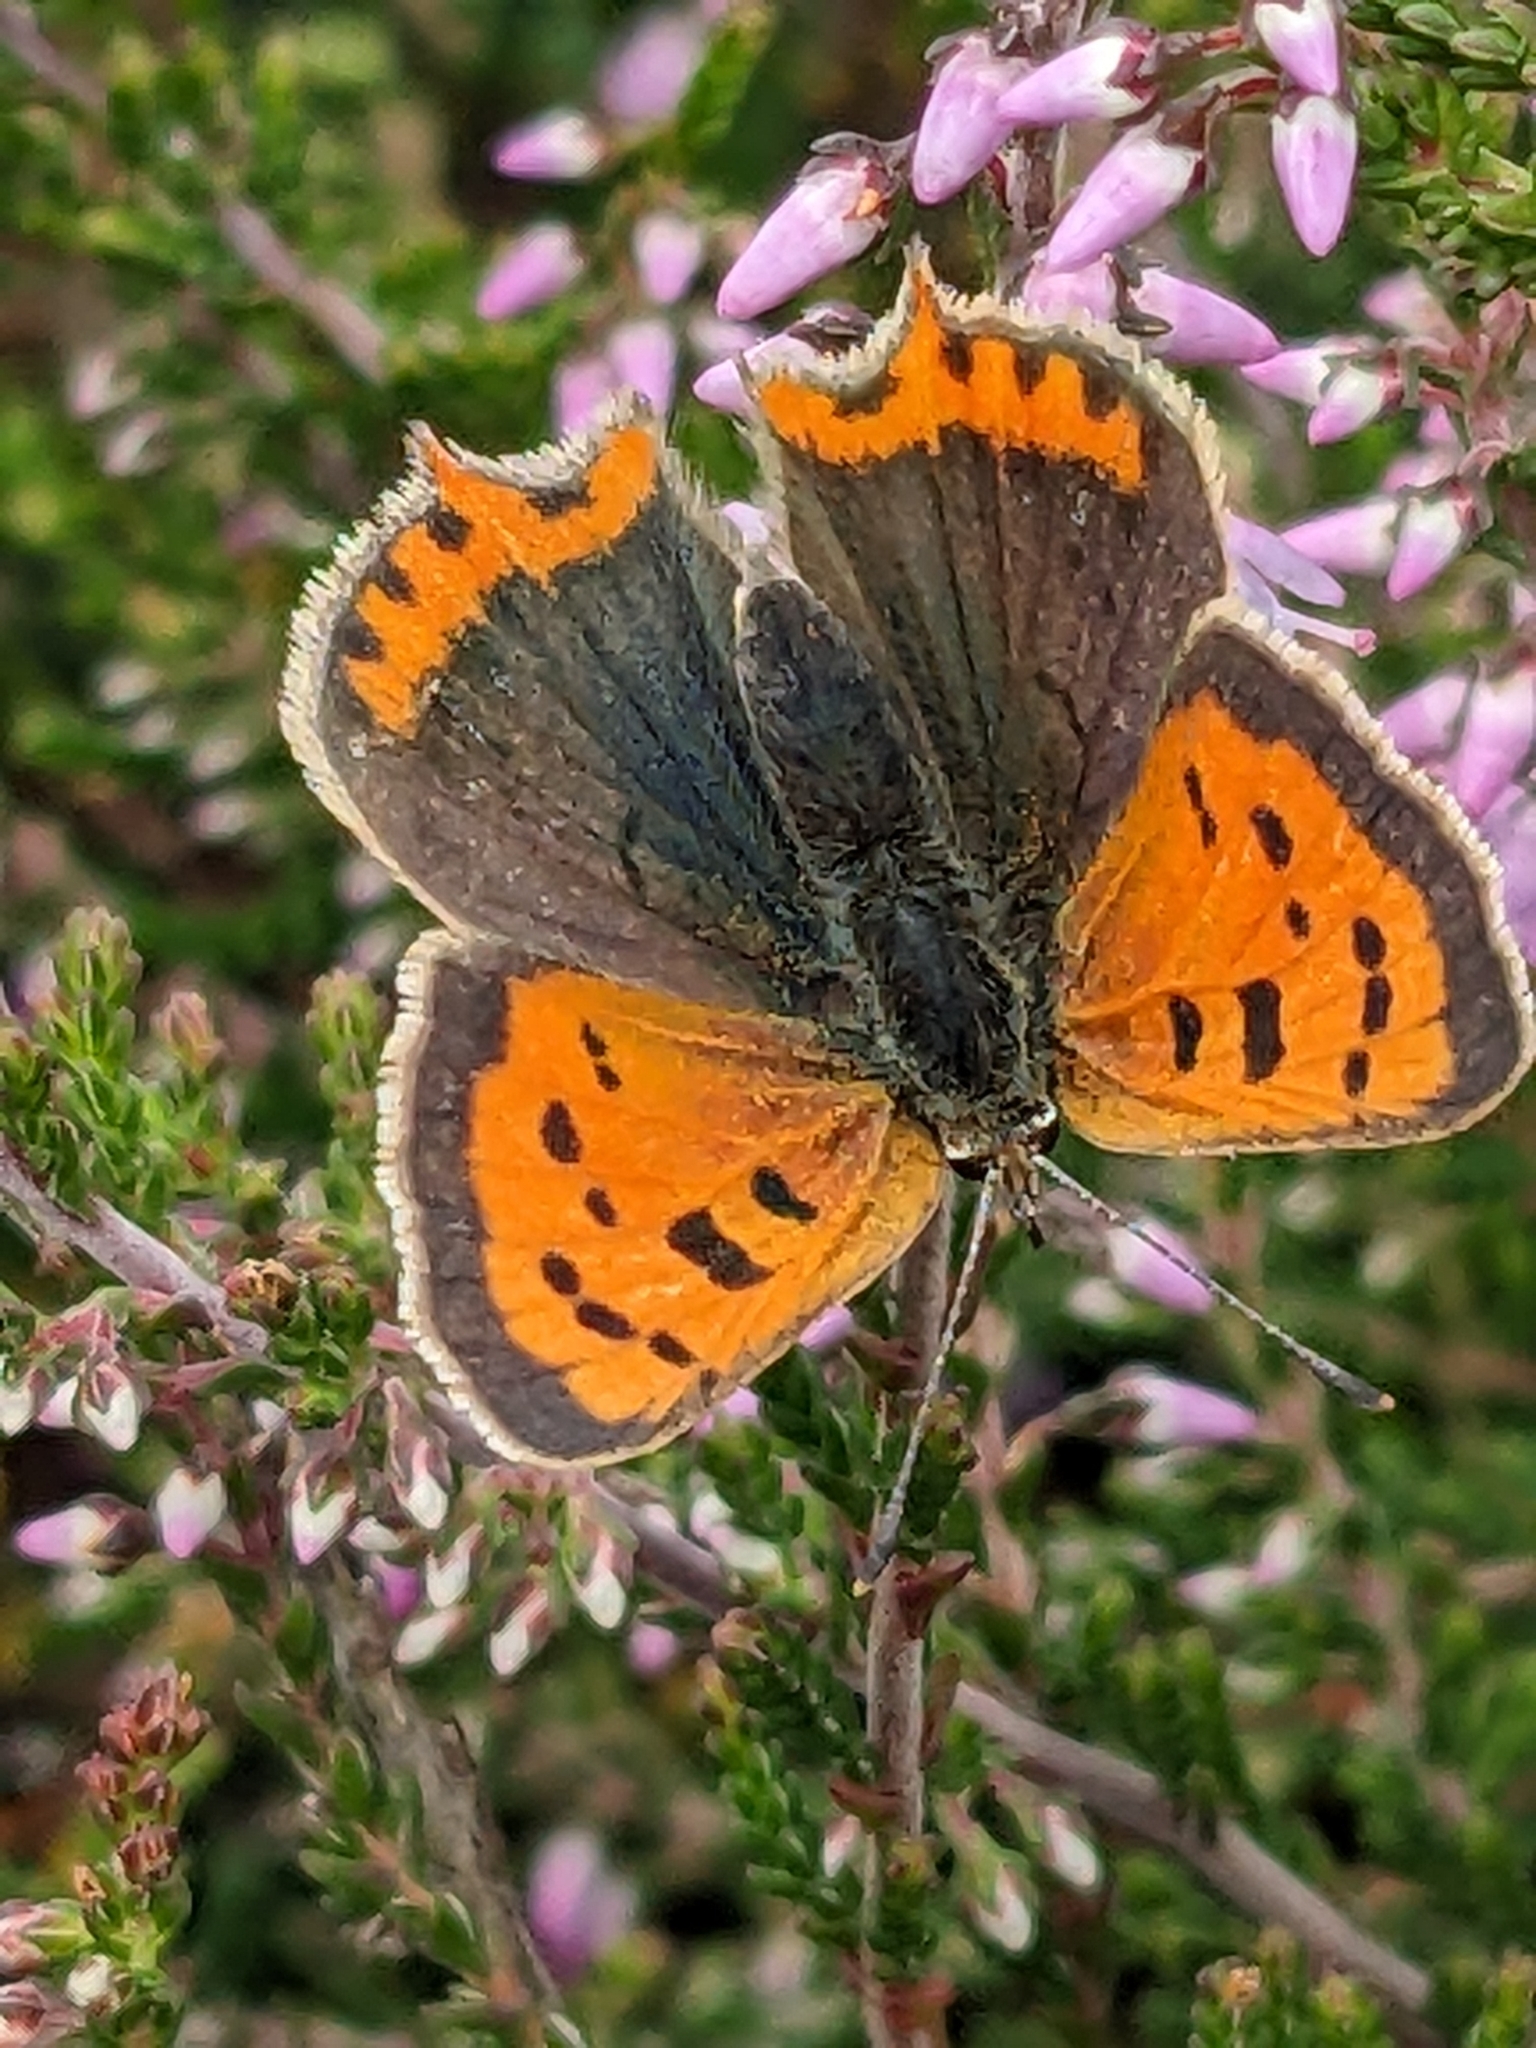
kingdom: Animalia
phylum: Arthropoda
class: Insecta
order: Lepidoptera
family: Lycaenidae
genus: Lycaena
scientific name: Lycaena phlaeas
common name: Small copper
